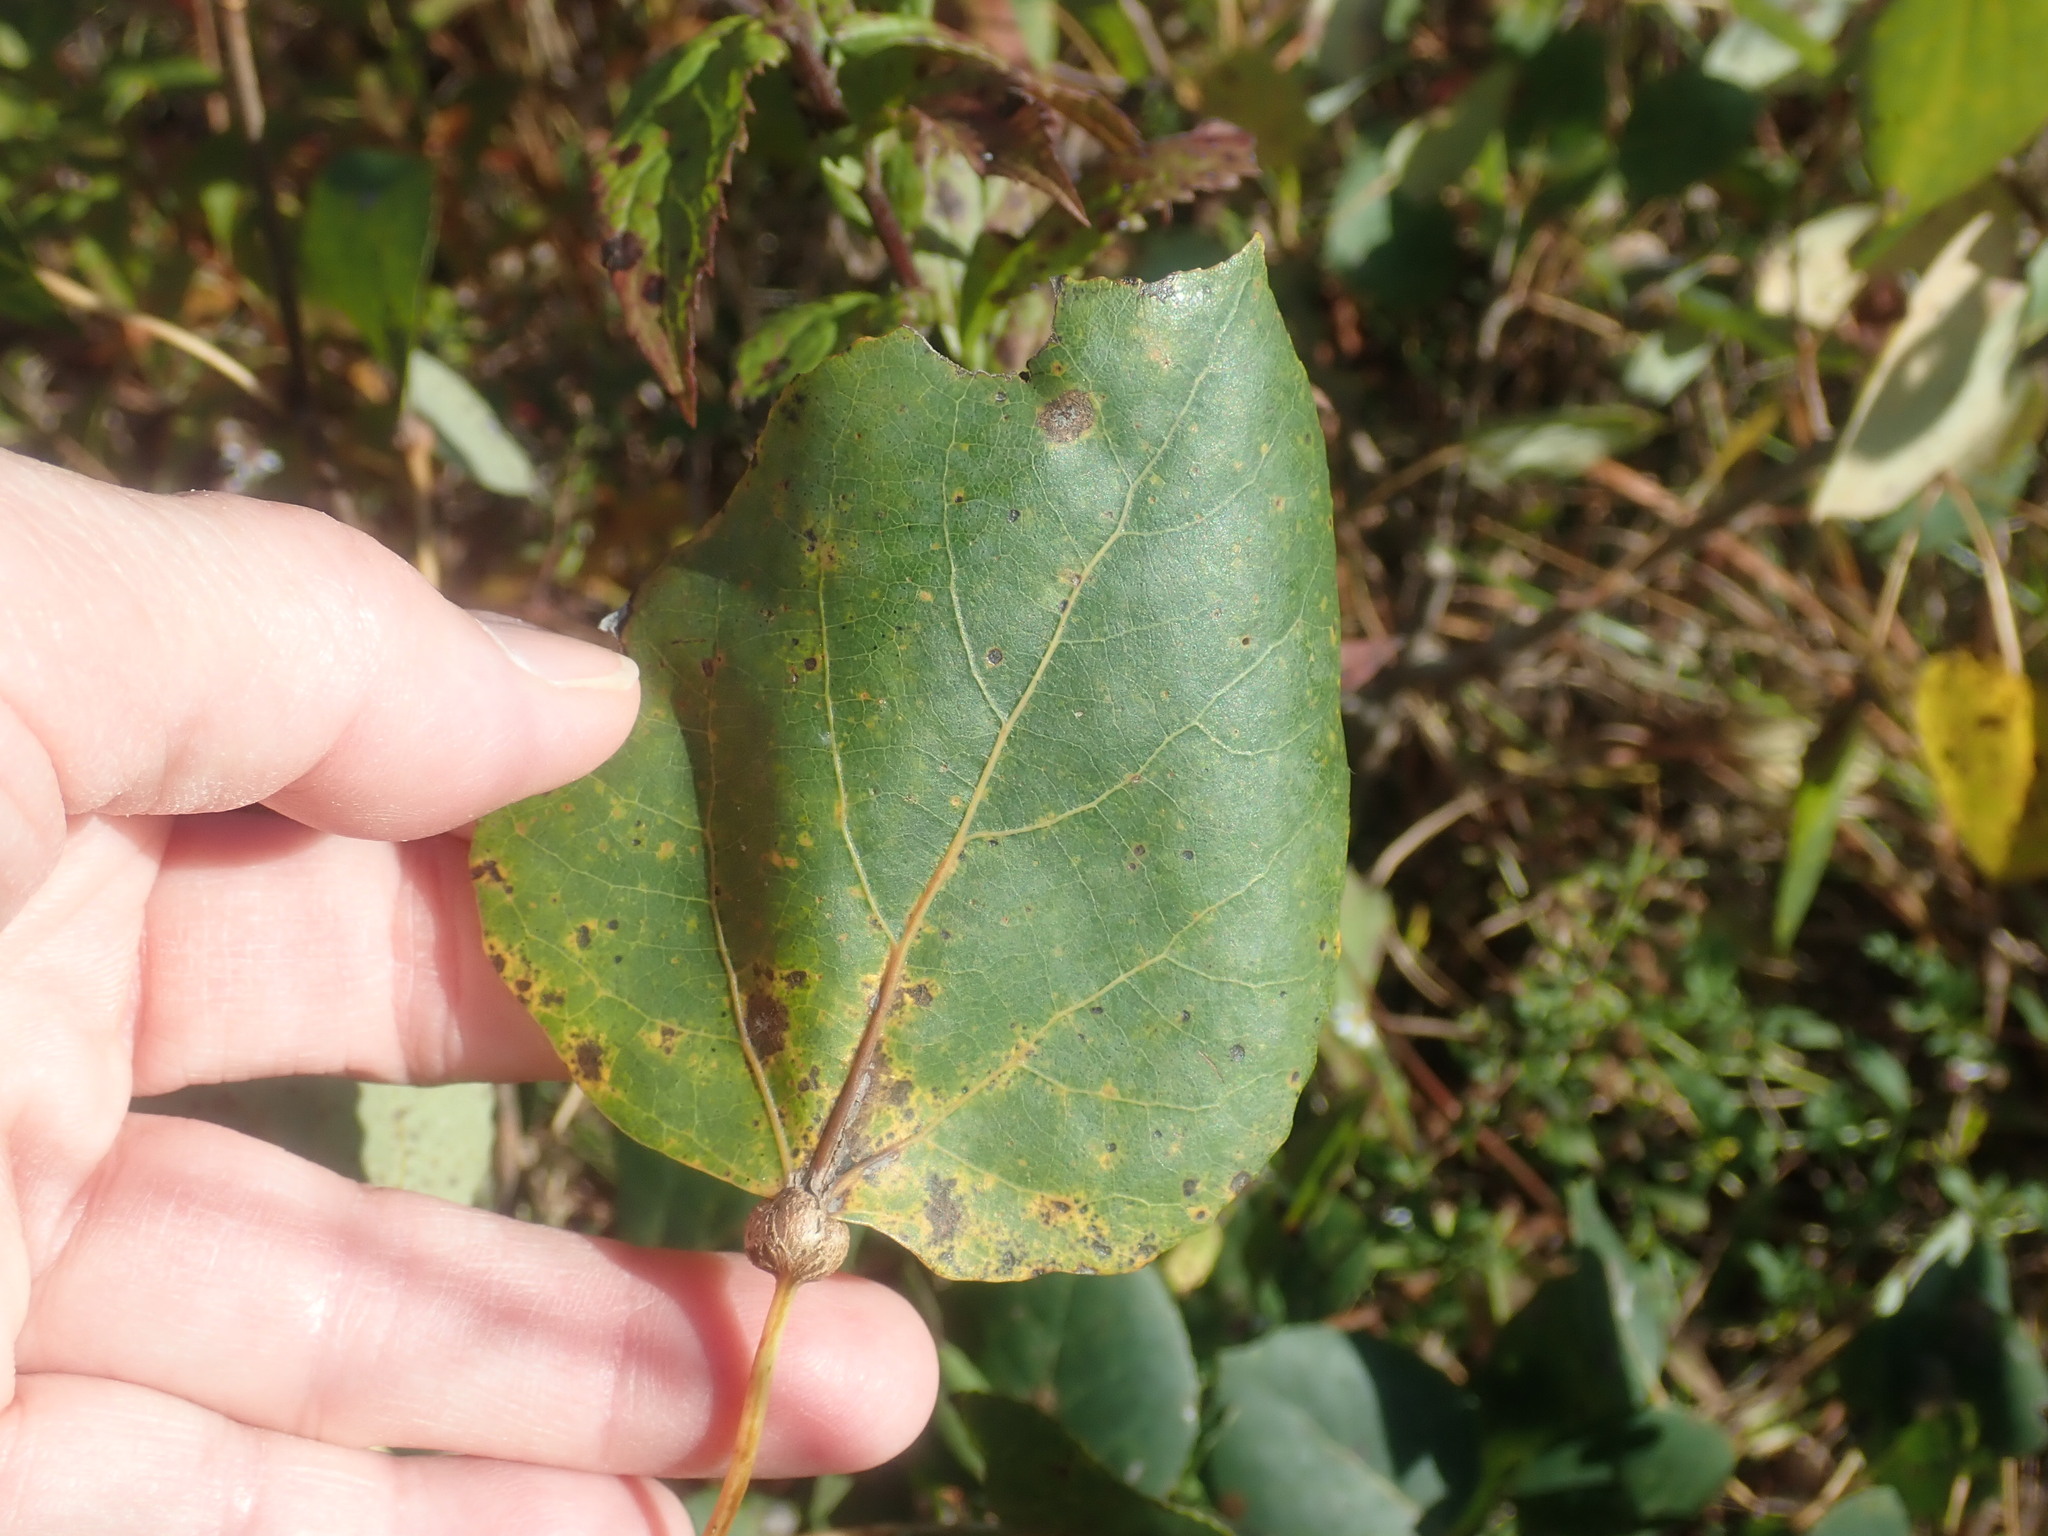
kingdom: Plantae
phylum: Tracheophyta
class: Magnoliopsida
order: Malpighiales
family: Salicaceae
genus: Populus
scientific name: Populus tremuloides
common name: Quaking aspen
